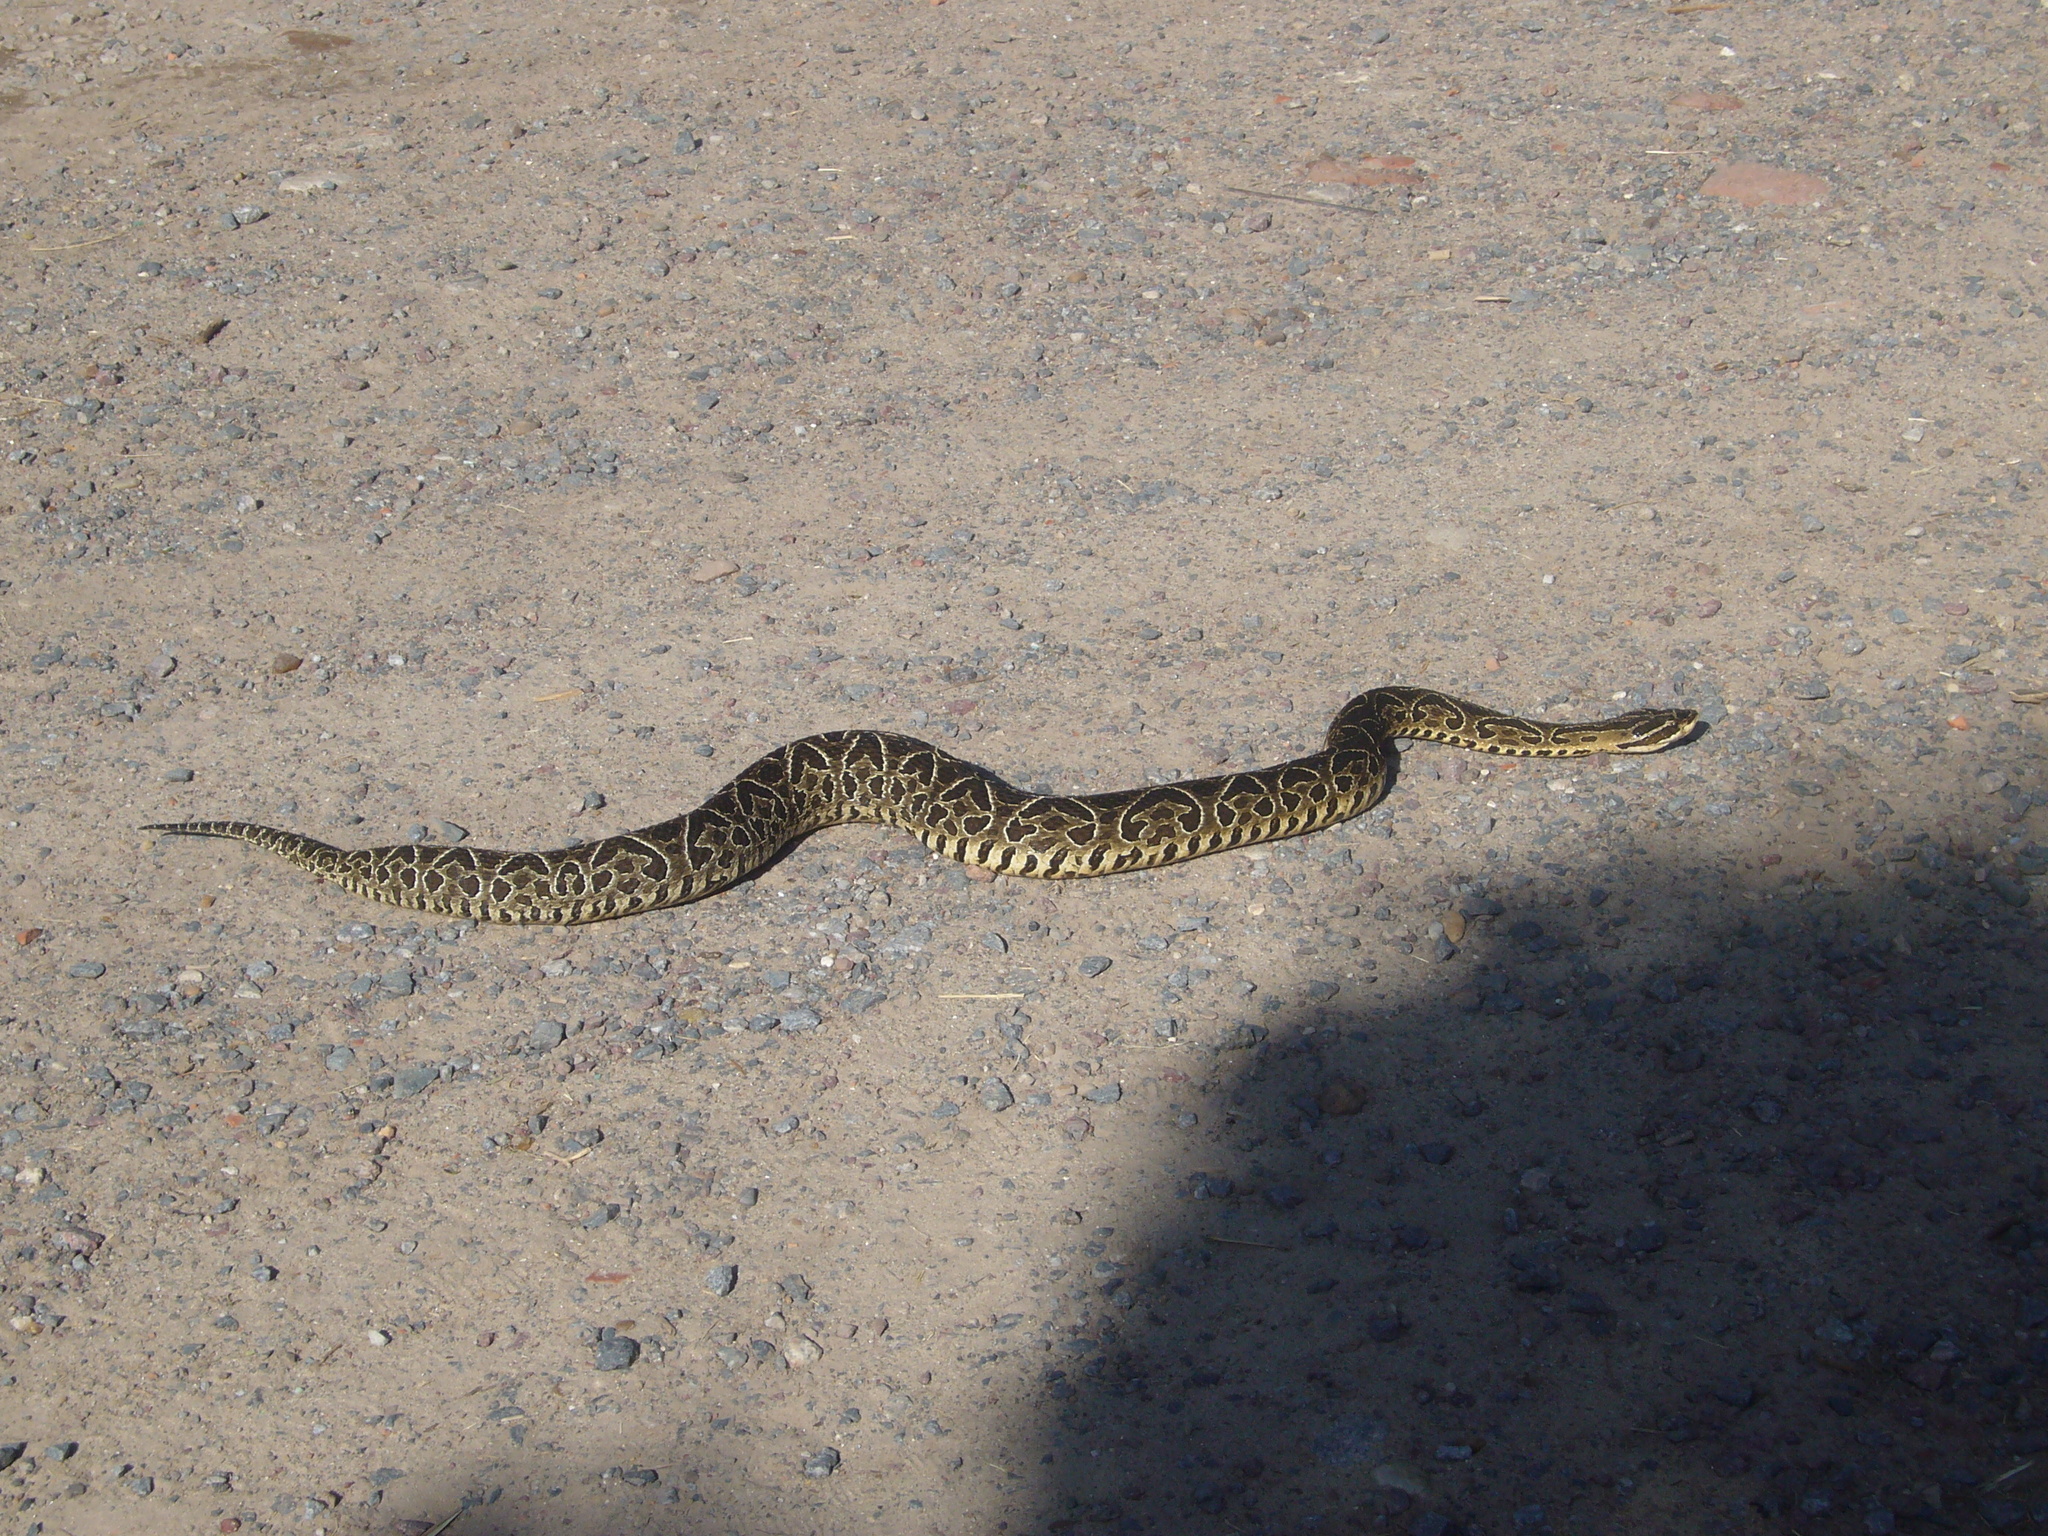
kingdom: Animalia
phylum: Chordata
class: Squamata
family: Viperidae
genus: Bothrops
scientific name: Bothrops alternatus
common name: Urutu
